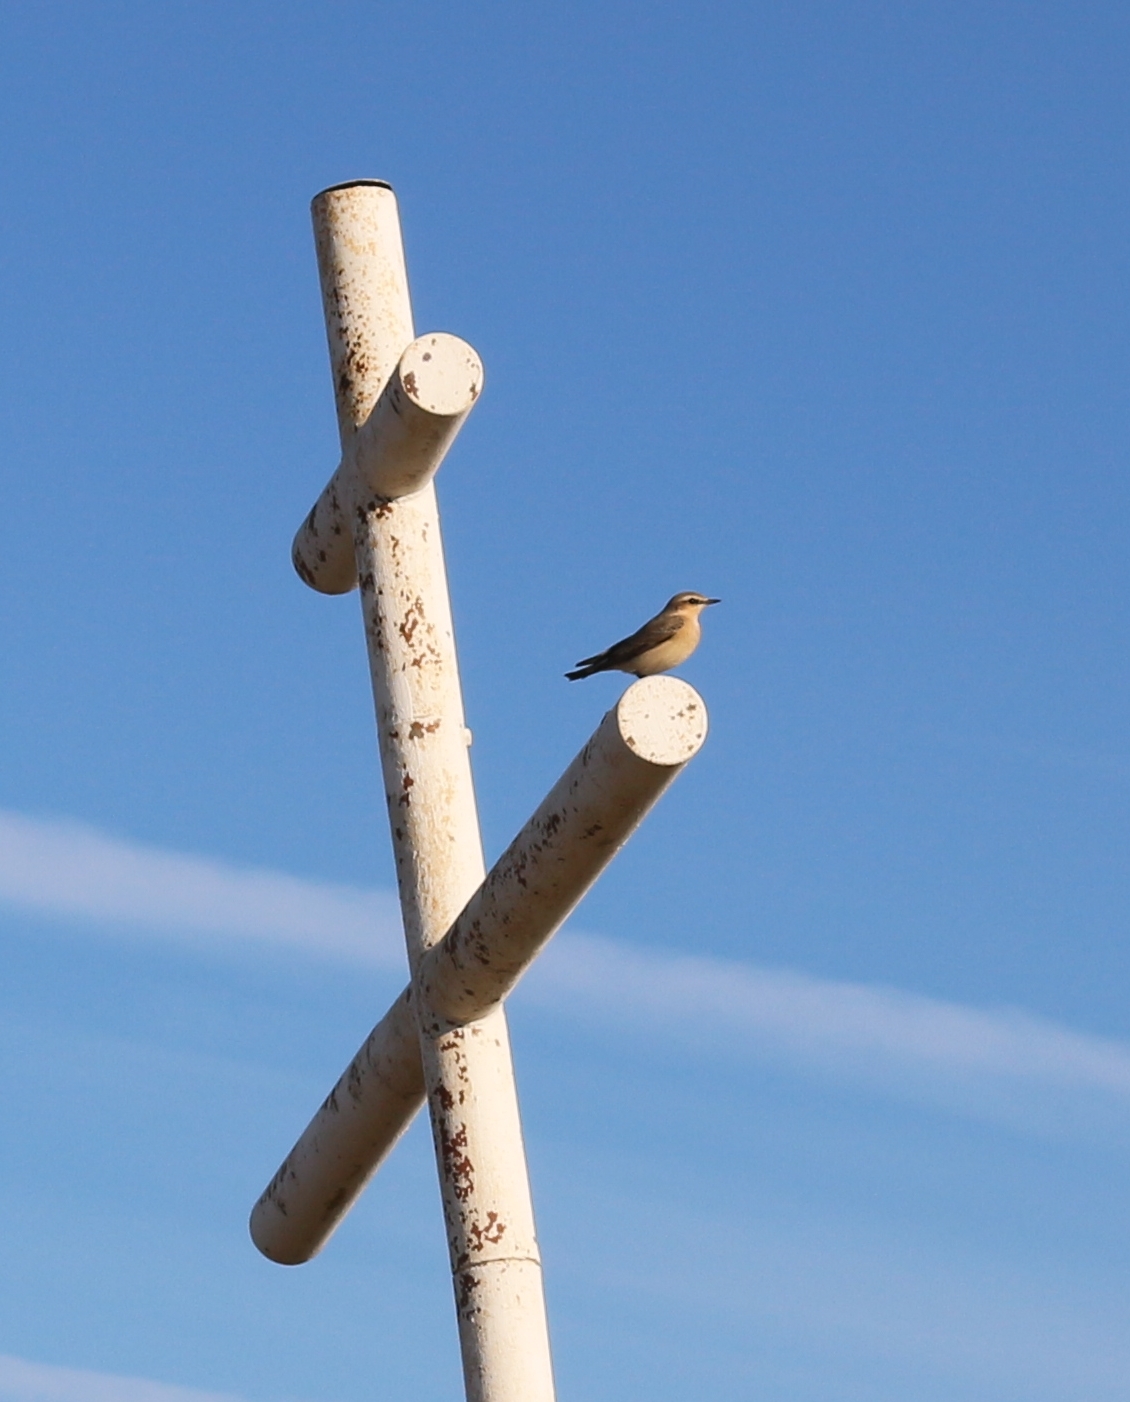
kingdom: Animalia
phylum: Chordata
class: Aves
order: Passeriformes
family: Muscicapidae
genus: Oenanthe
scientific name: Oenanthe oenanthe
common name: Northern wheatear
